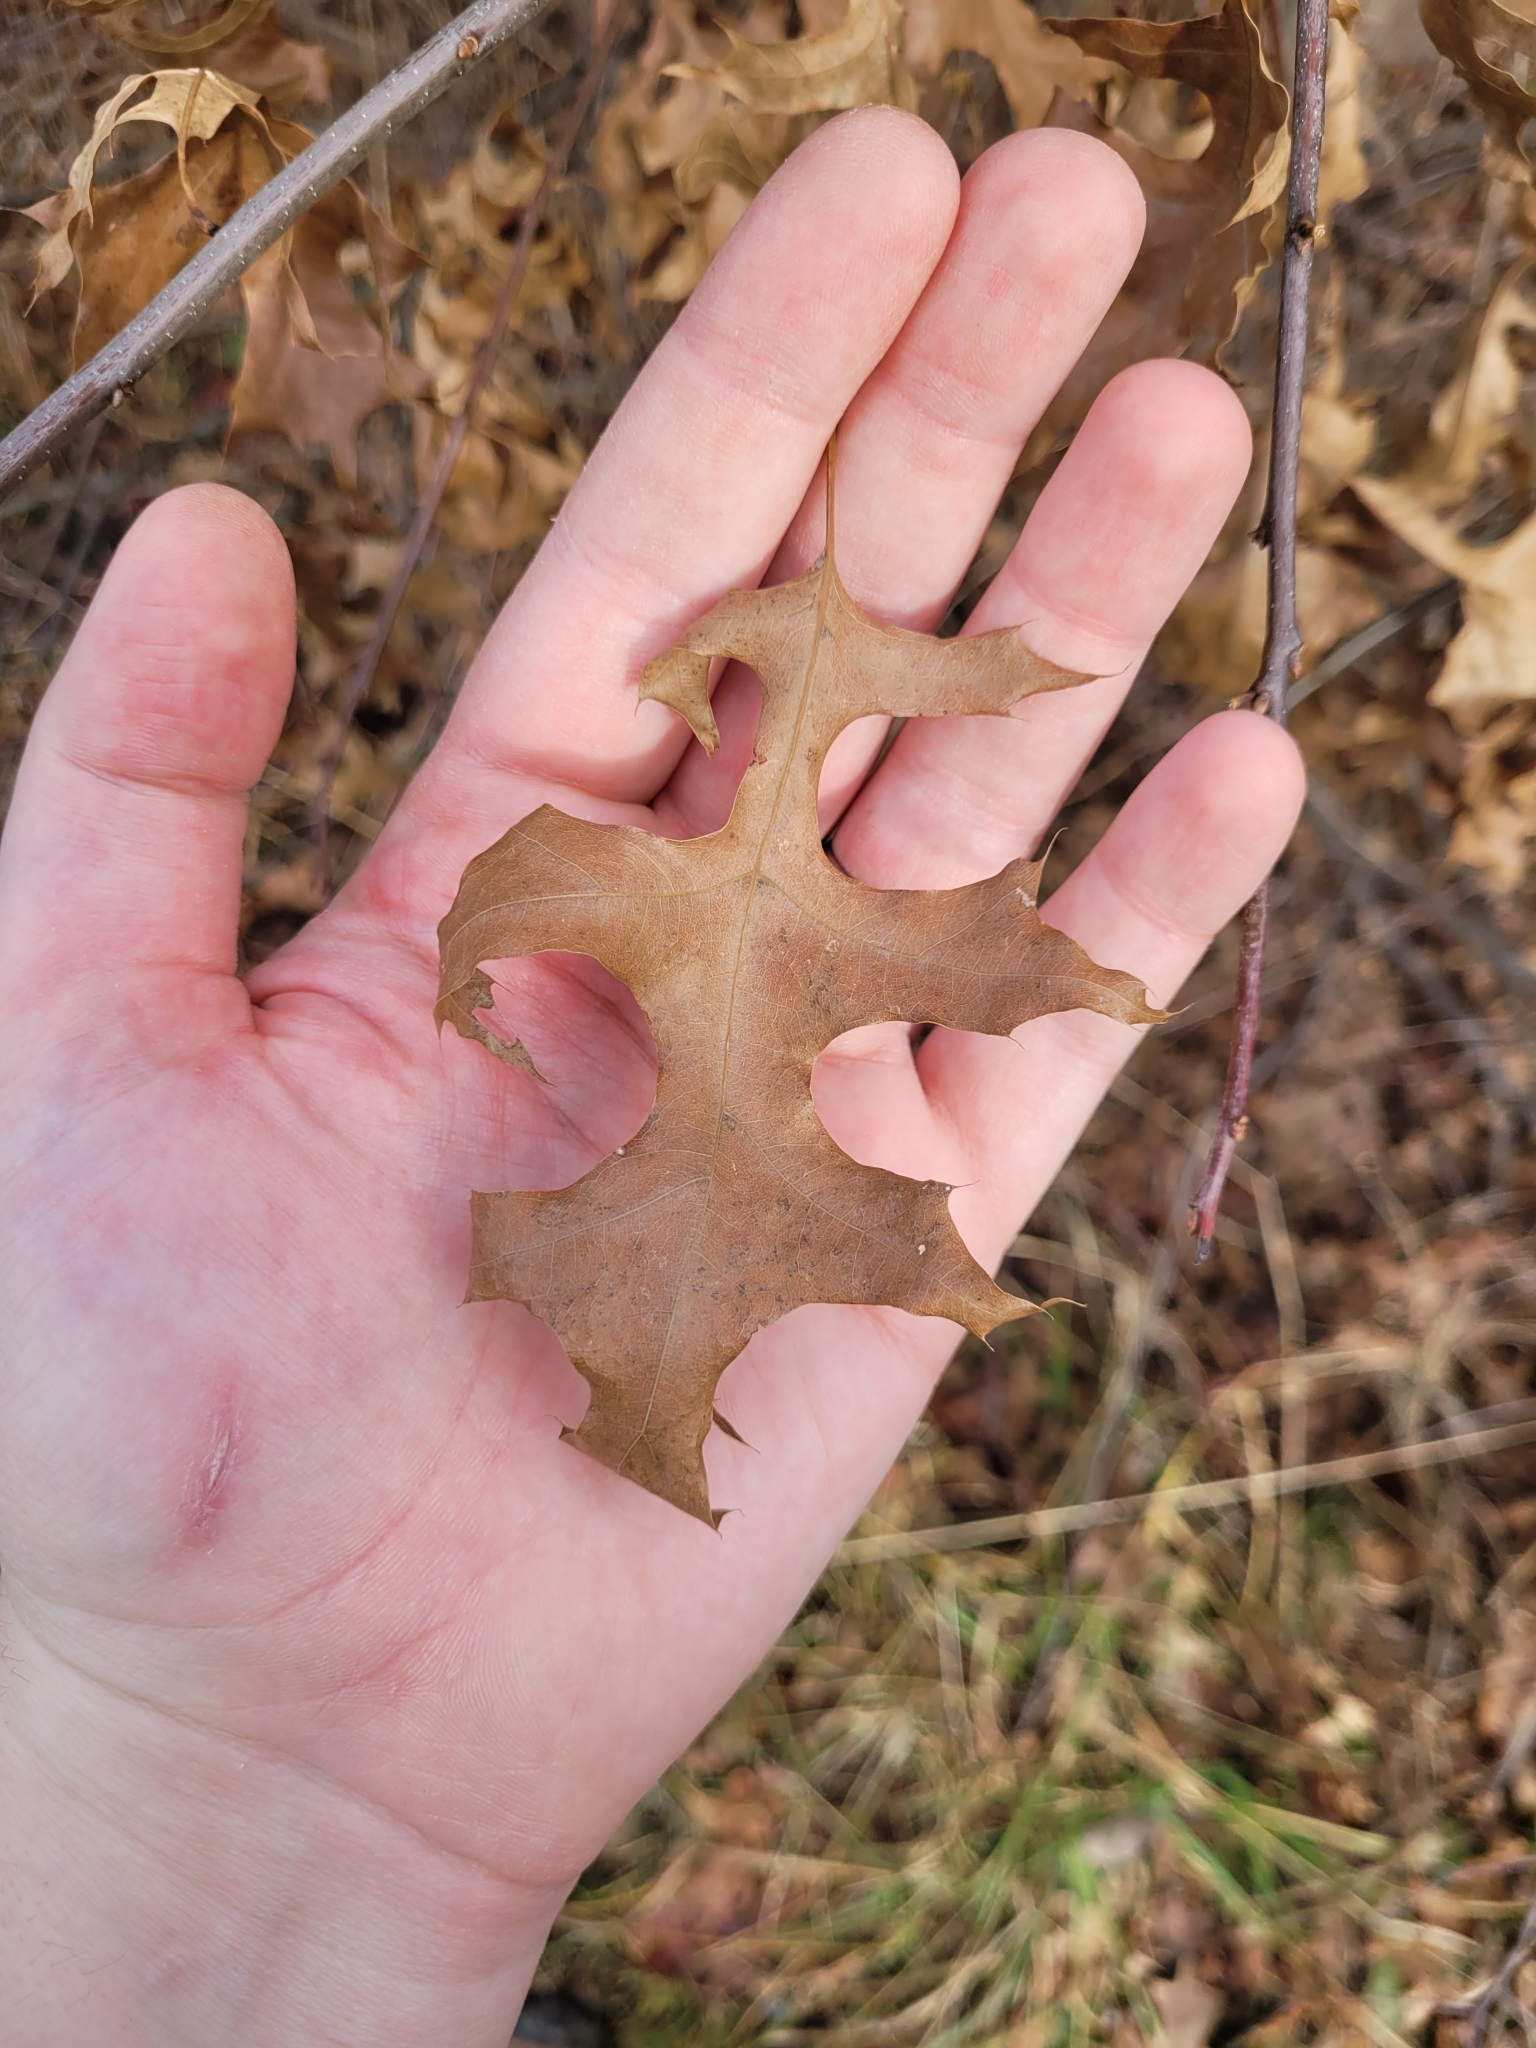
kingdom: Plantae
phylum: Tracheophyta
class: Magnoliopsida
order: Fagales
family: Fagaceae
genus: Quercus
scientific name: Quercus palustris
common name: Pin oak
